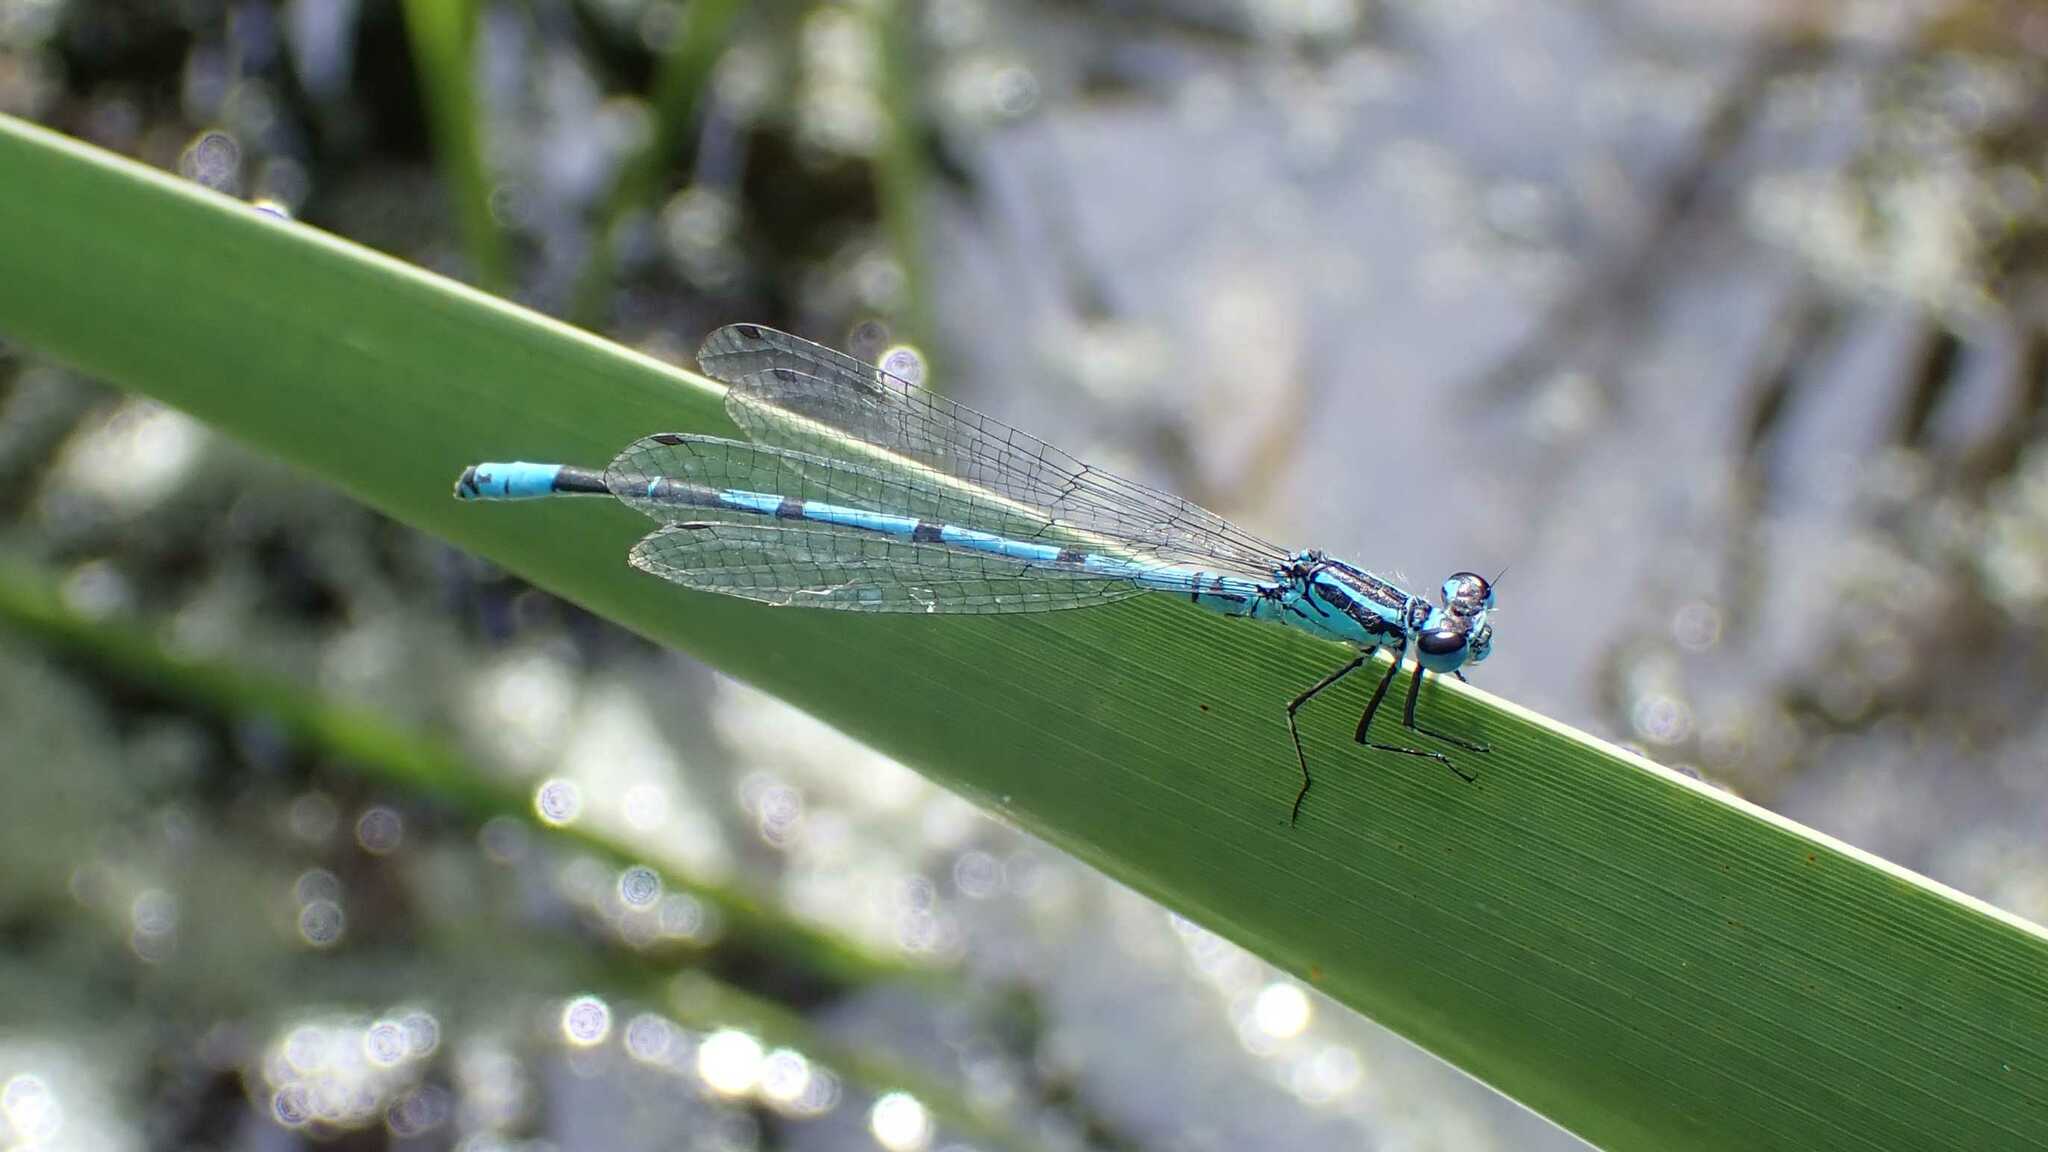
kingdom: Animalia
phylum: Arthropoda
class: Insecta
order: Odonata
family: Coenagrionidae
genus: Coenagrion
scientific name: Coenagrion puella
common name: Azure damselfly
